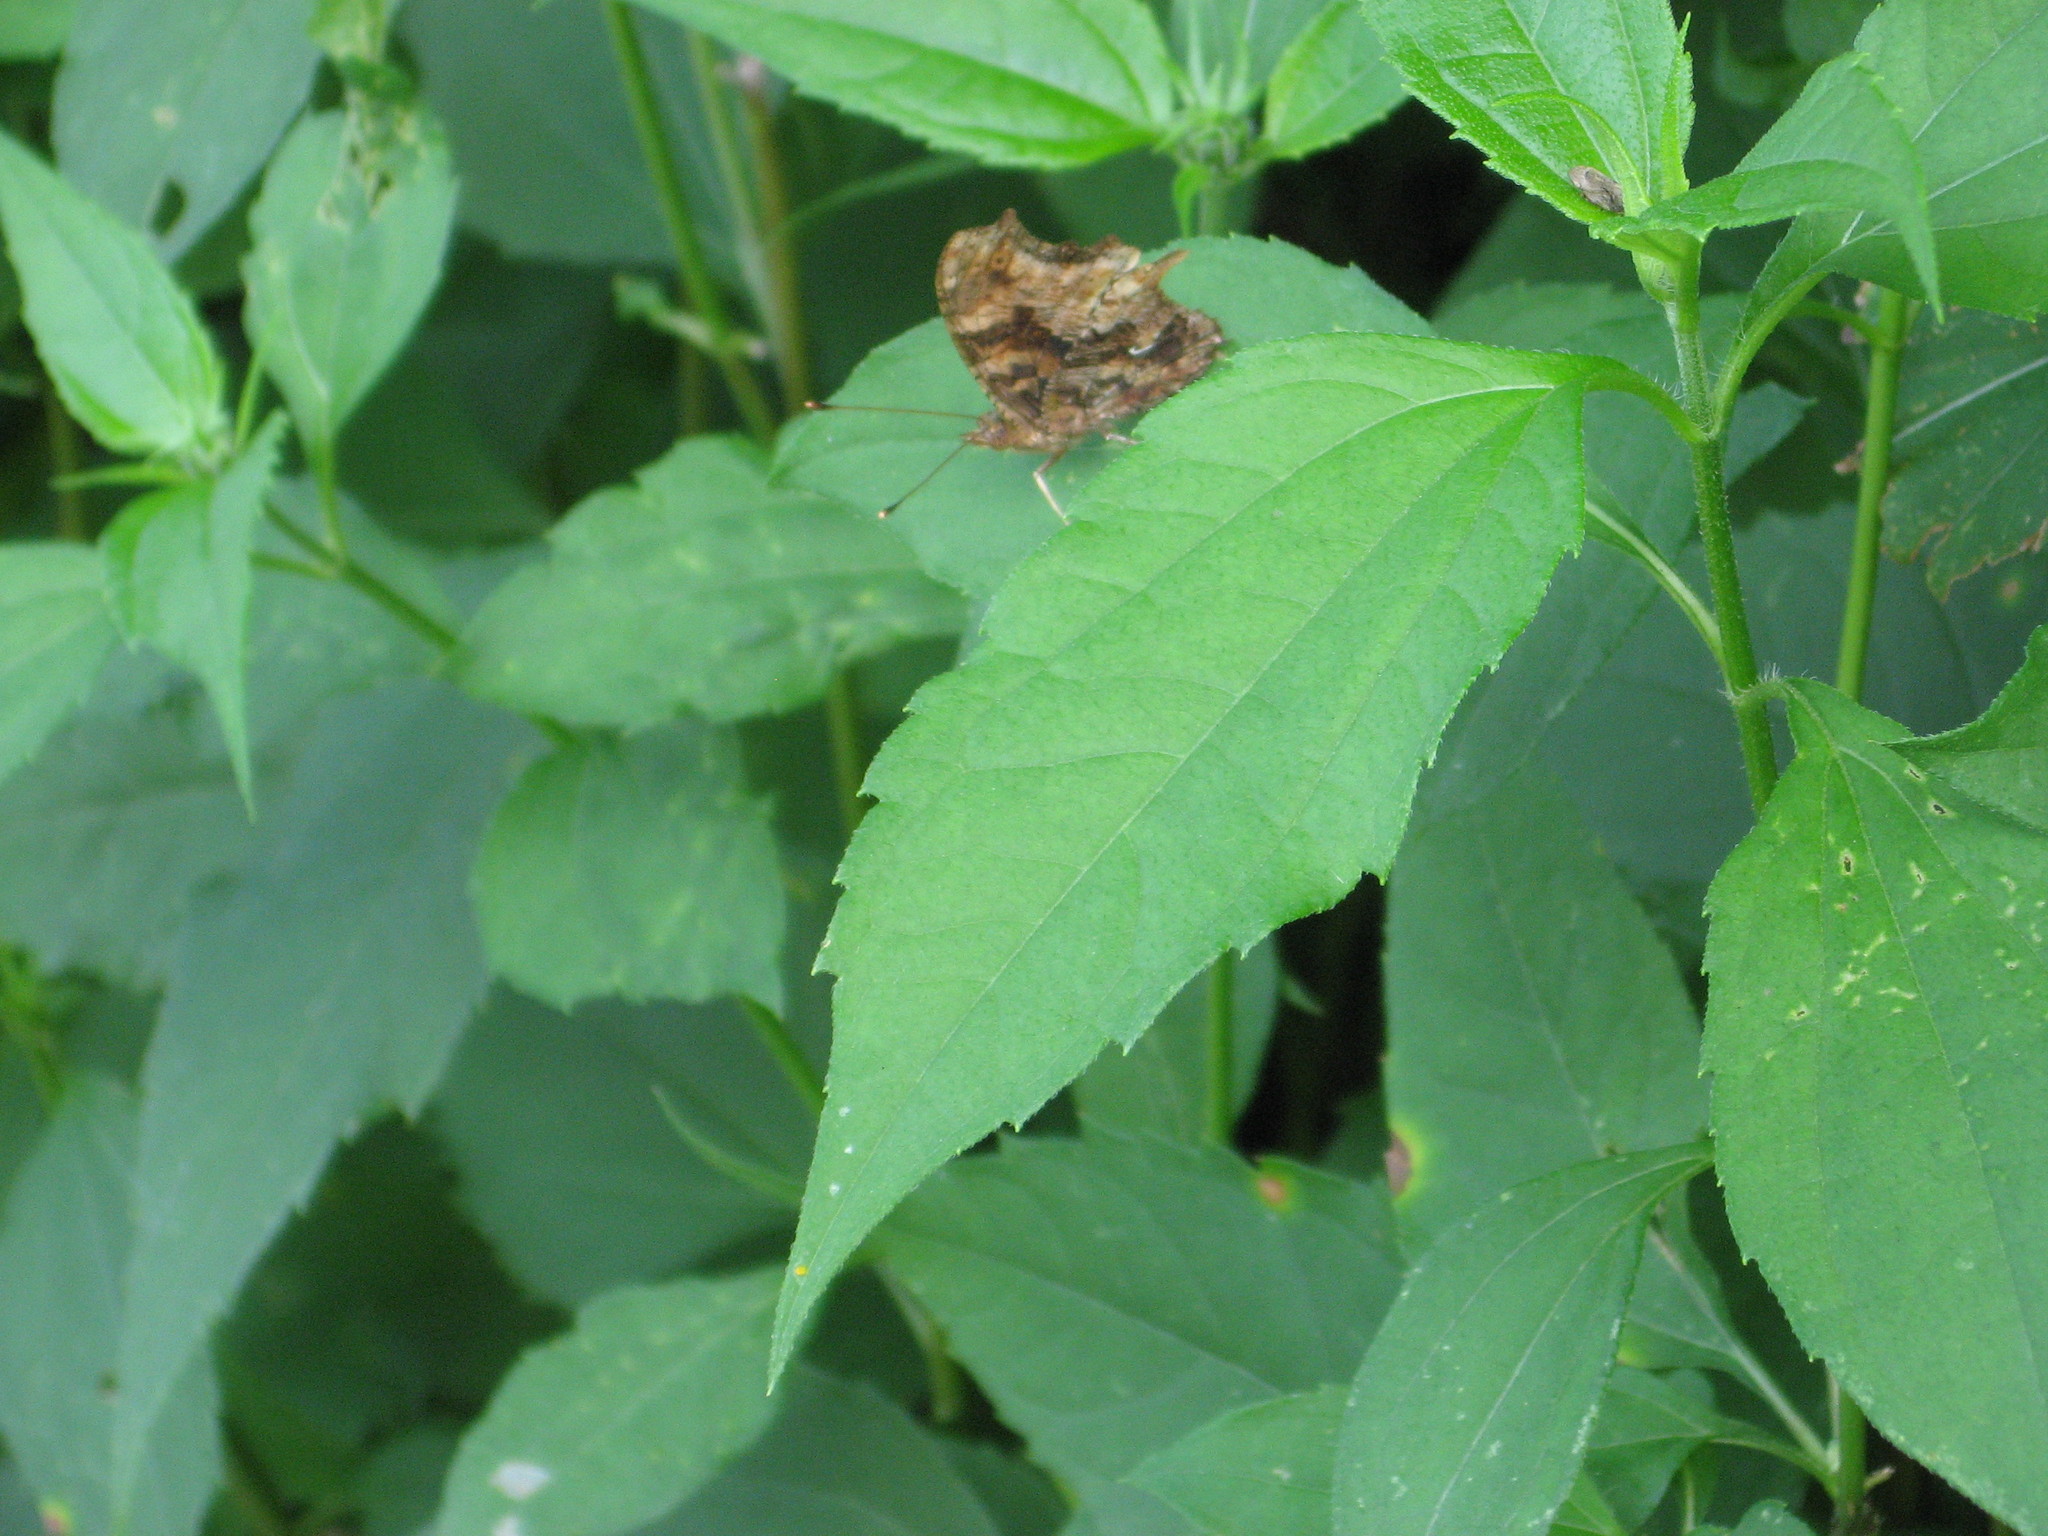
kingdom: Animalia
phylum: Arthropoda
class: Insecta
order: Lepidoptera
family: Nymphalidae
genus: Polygonia
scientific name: Polygonia comma
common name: Eastern comma
